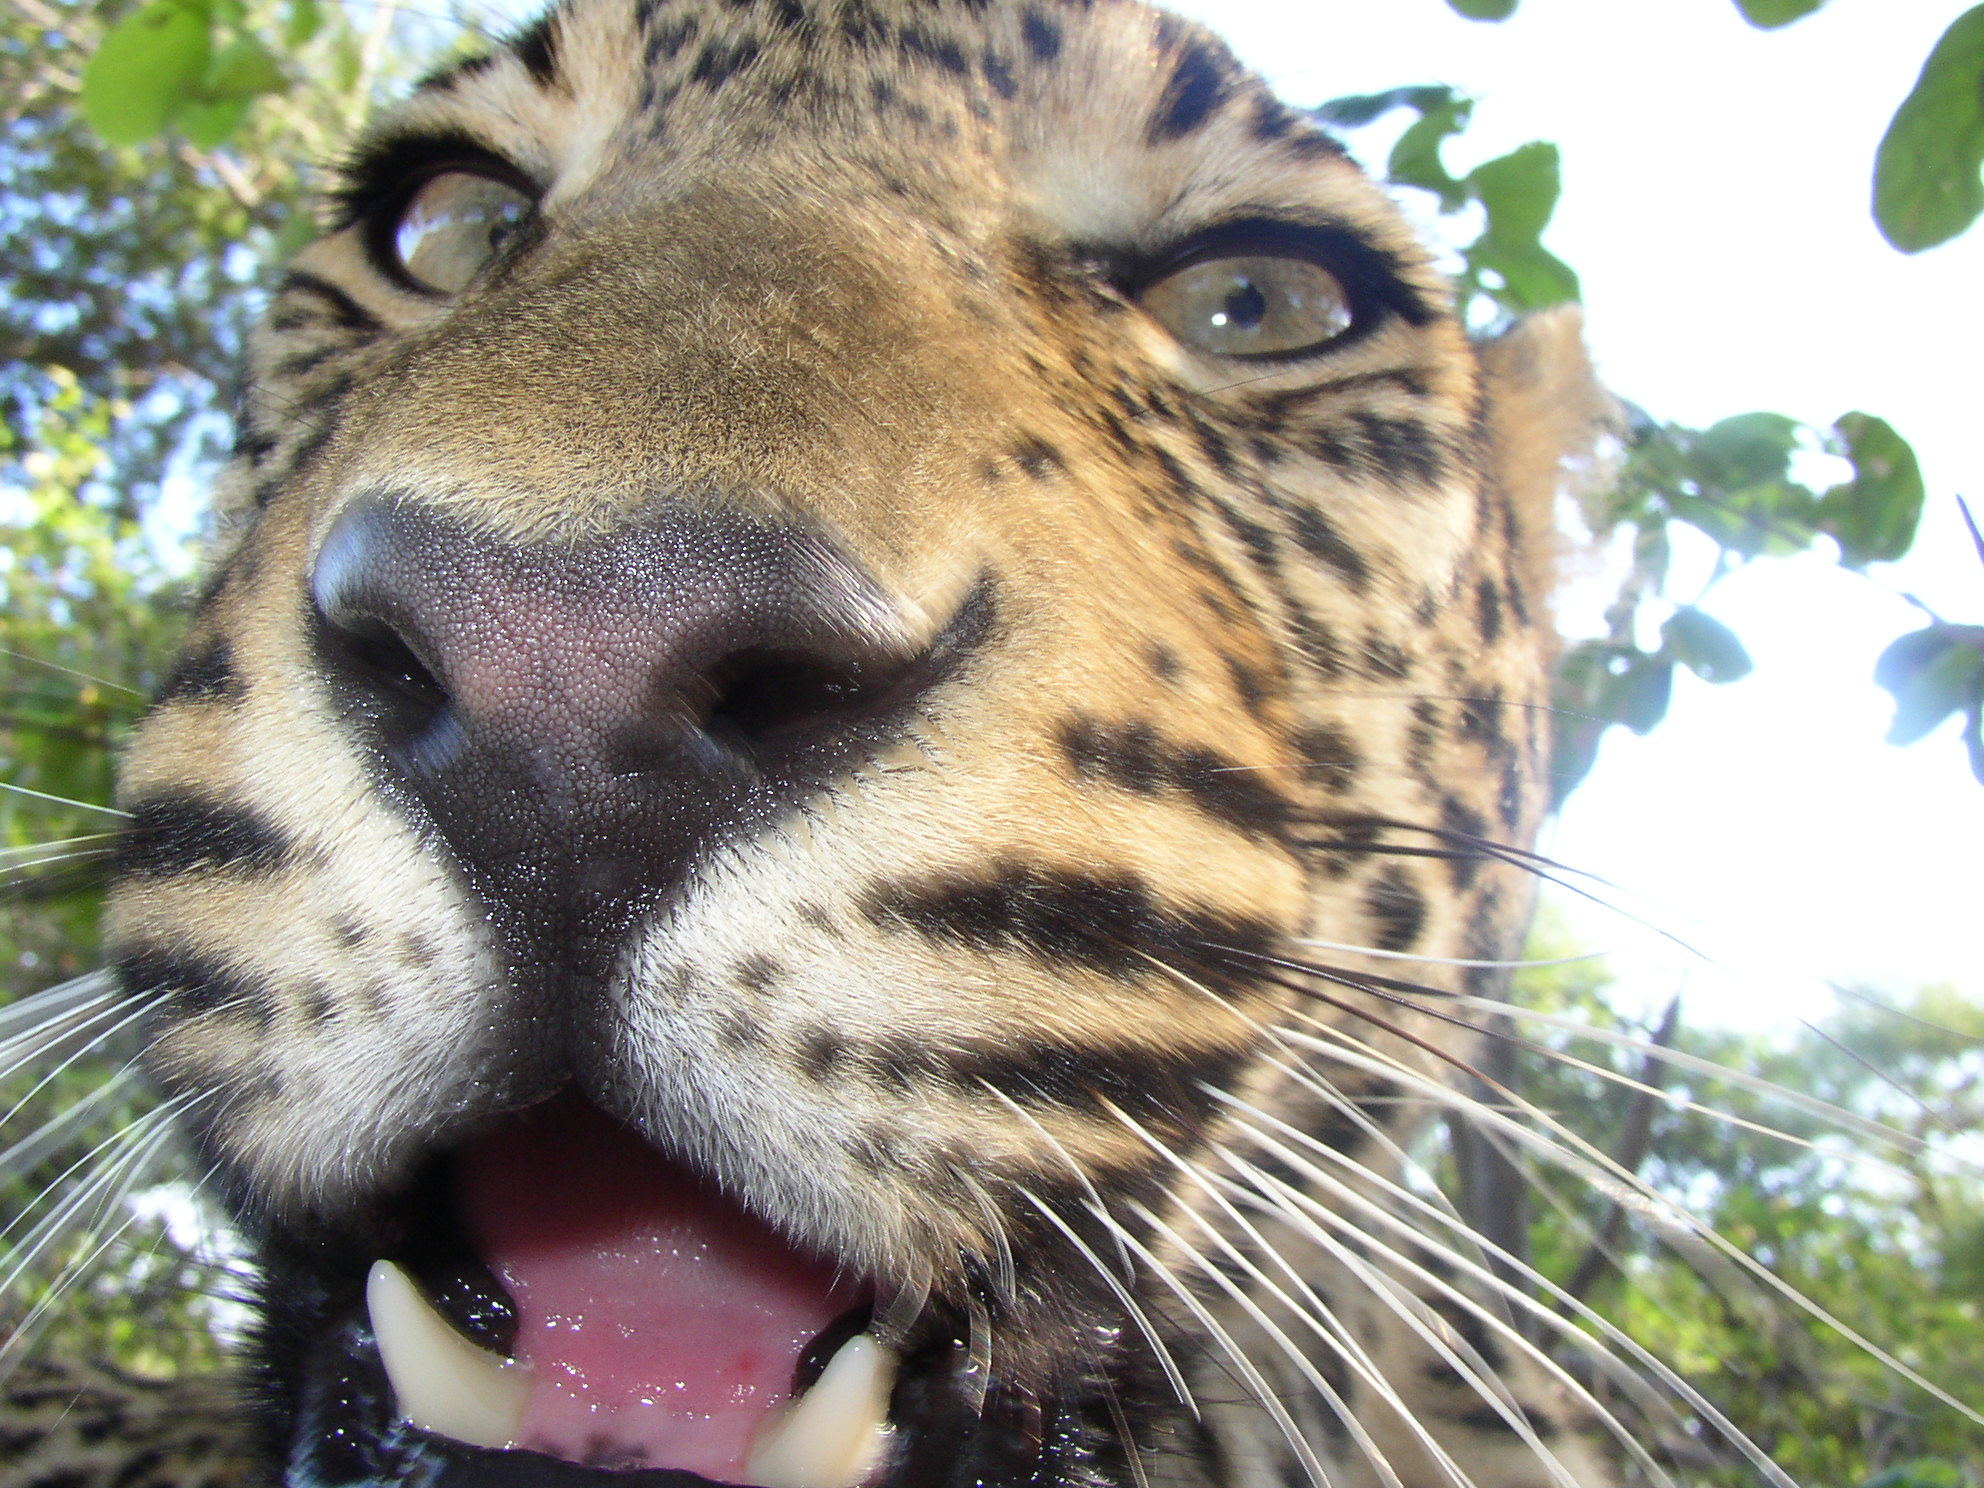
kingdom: Animalia
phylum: Chordata
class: Mammalia
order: Carnivora
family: Felidae
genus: Panthera
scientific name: Panthera pardus
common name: Leopard
